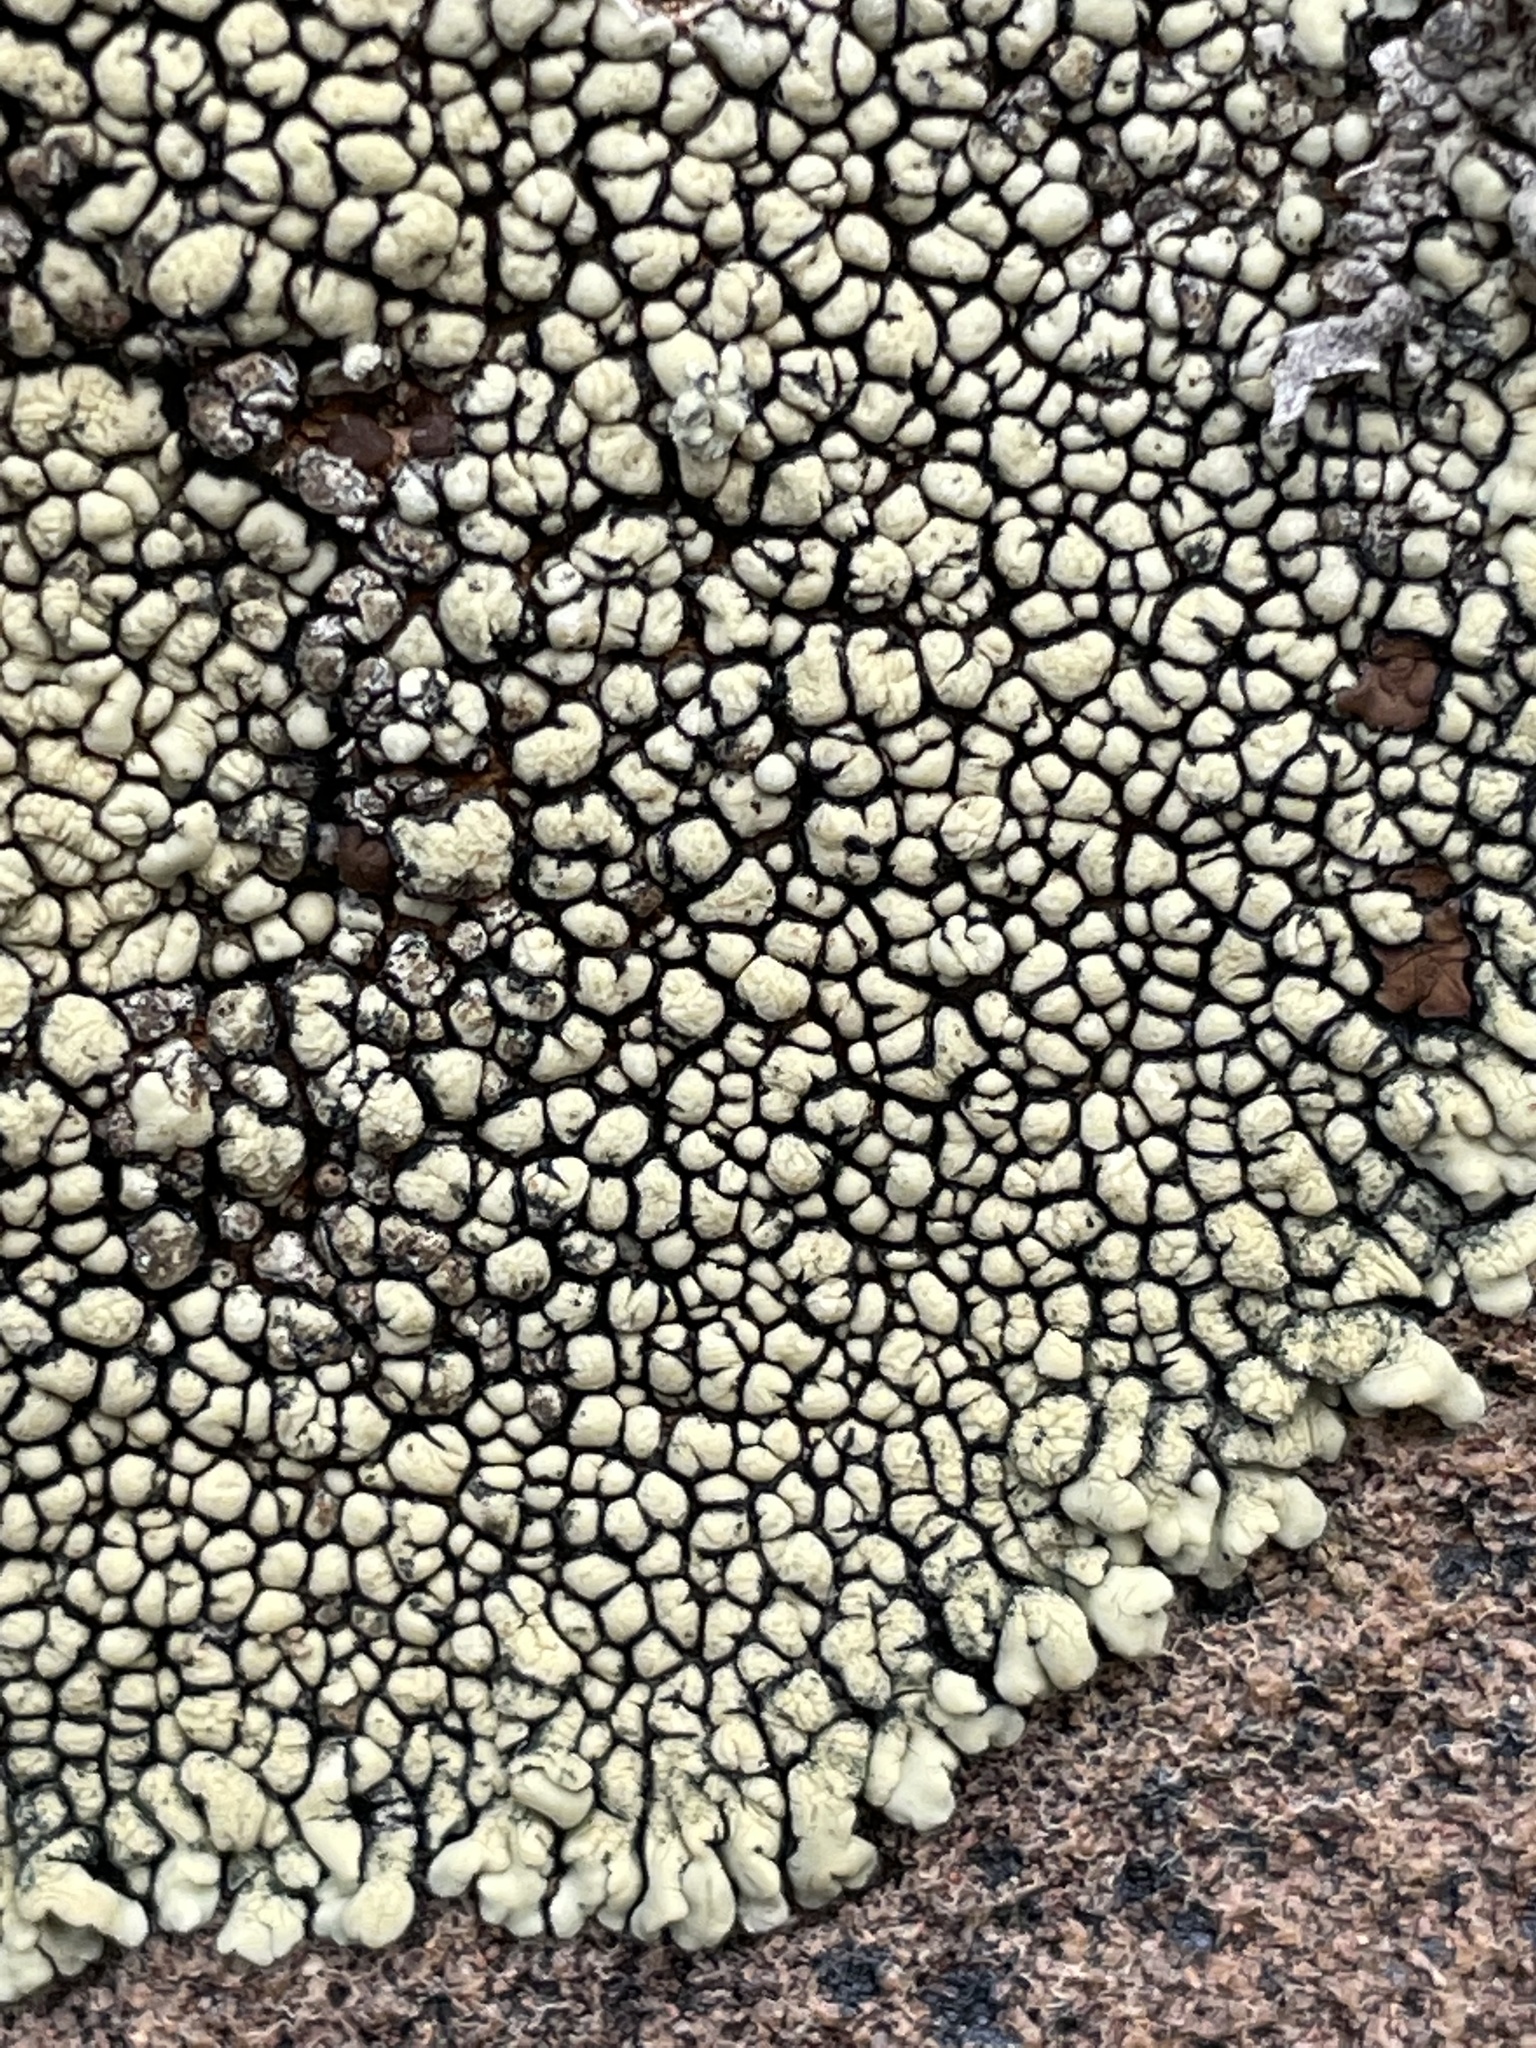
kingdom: Fungi
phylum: Ascomycota
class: Lecanoromycetes
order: Lecanorales
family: Lecanoraceae
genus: Protoparmeliopsis
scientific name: Protoparmeliopsis garovaglii
